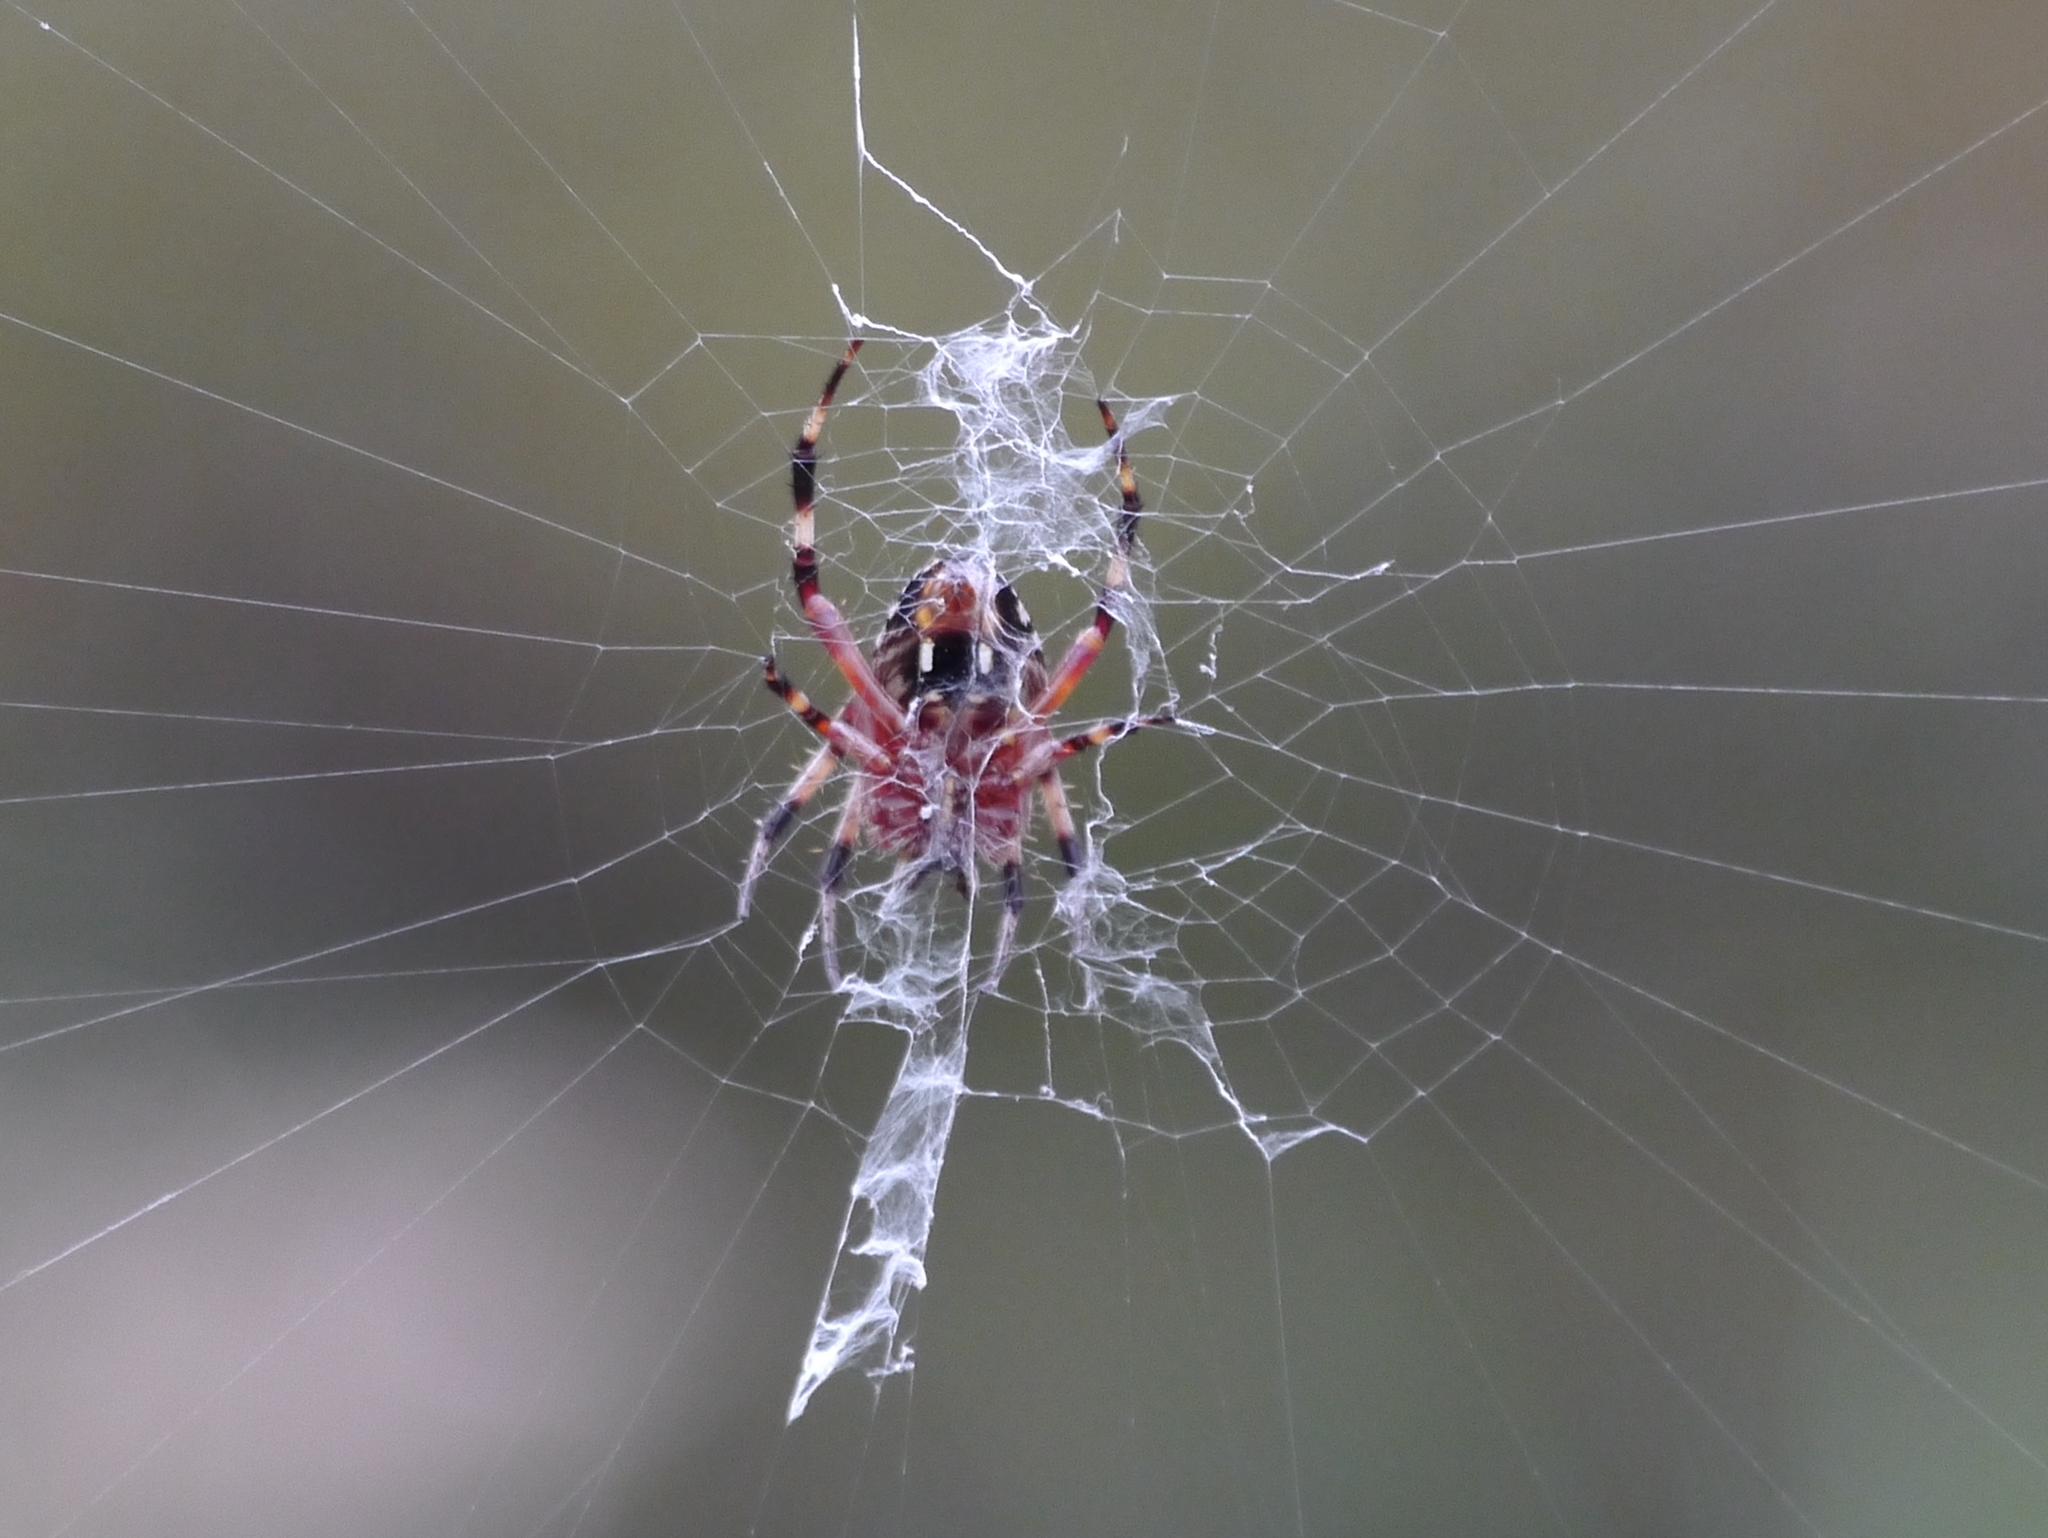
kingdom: Animalia
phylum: Arthropoda
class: Arachnida
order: Araneae
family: Araneidae
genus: Neoscona
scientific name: Neoscona domiciliorum
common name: Red-femured spotted orbweaver
